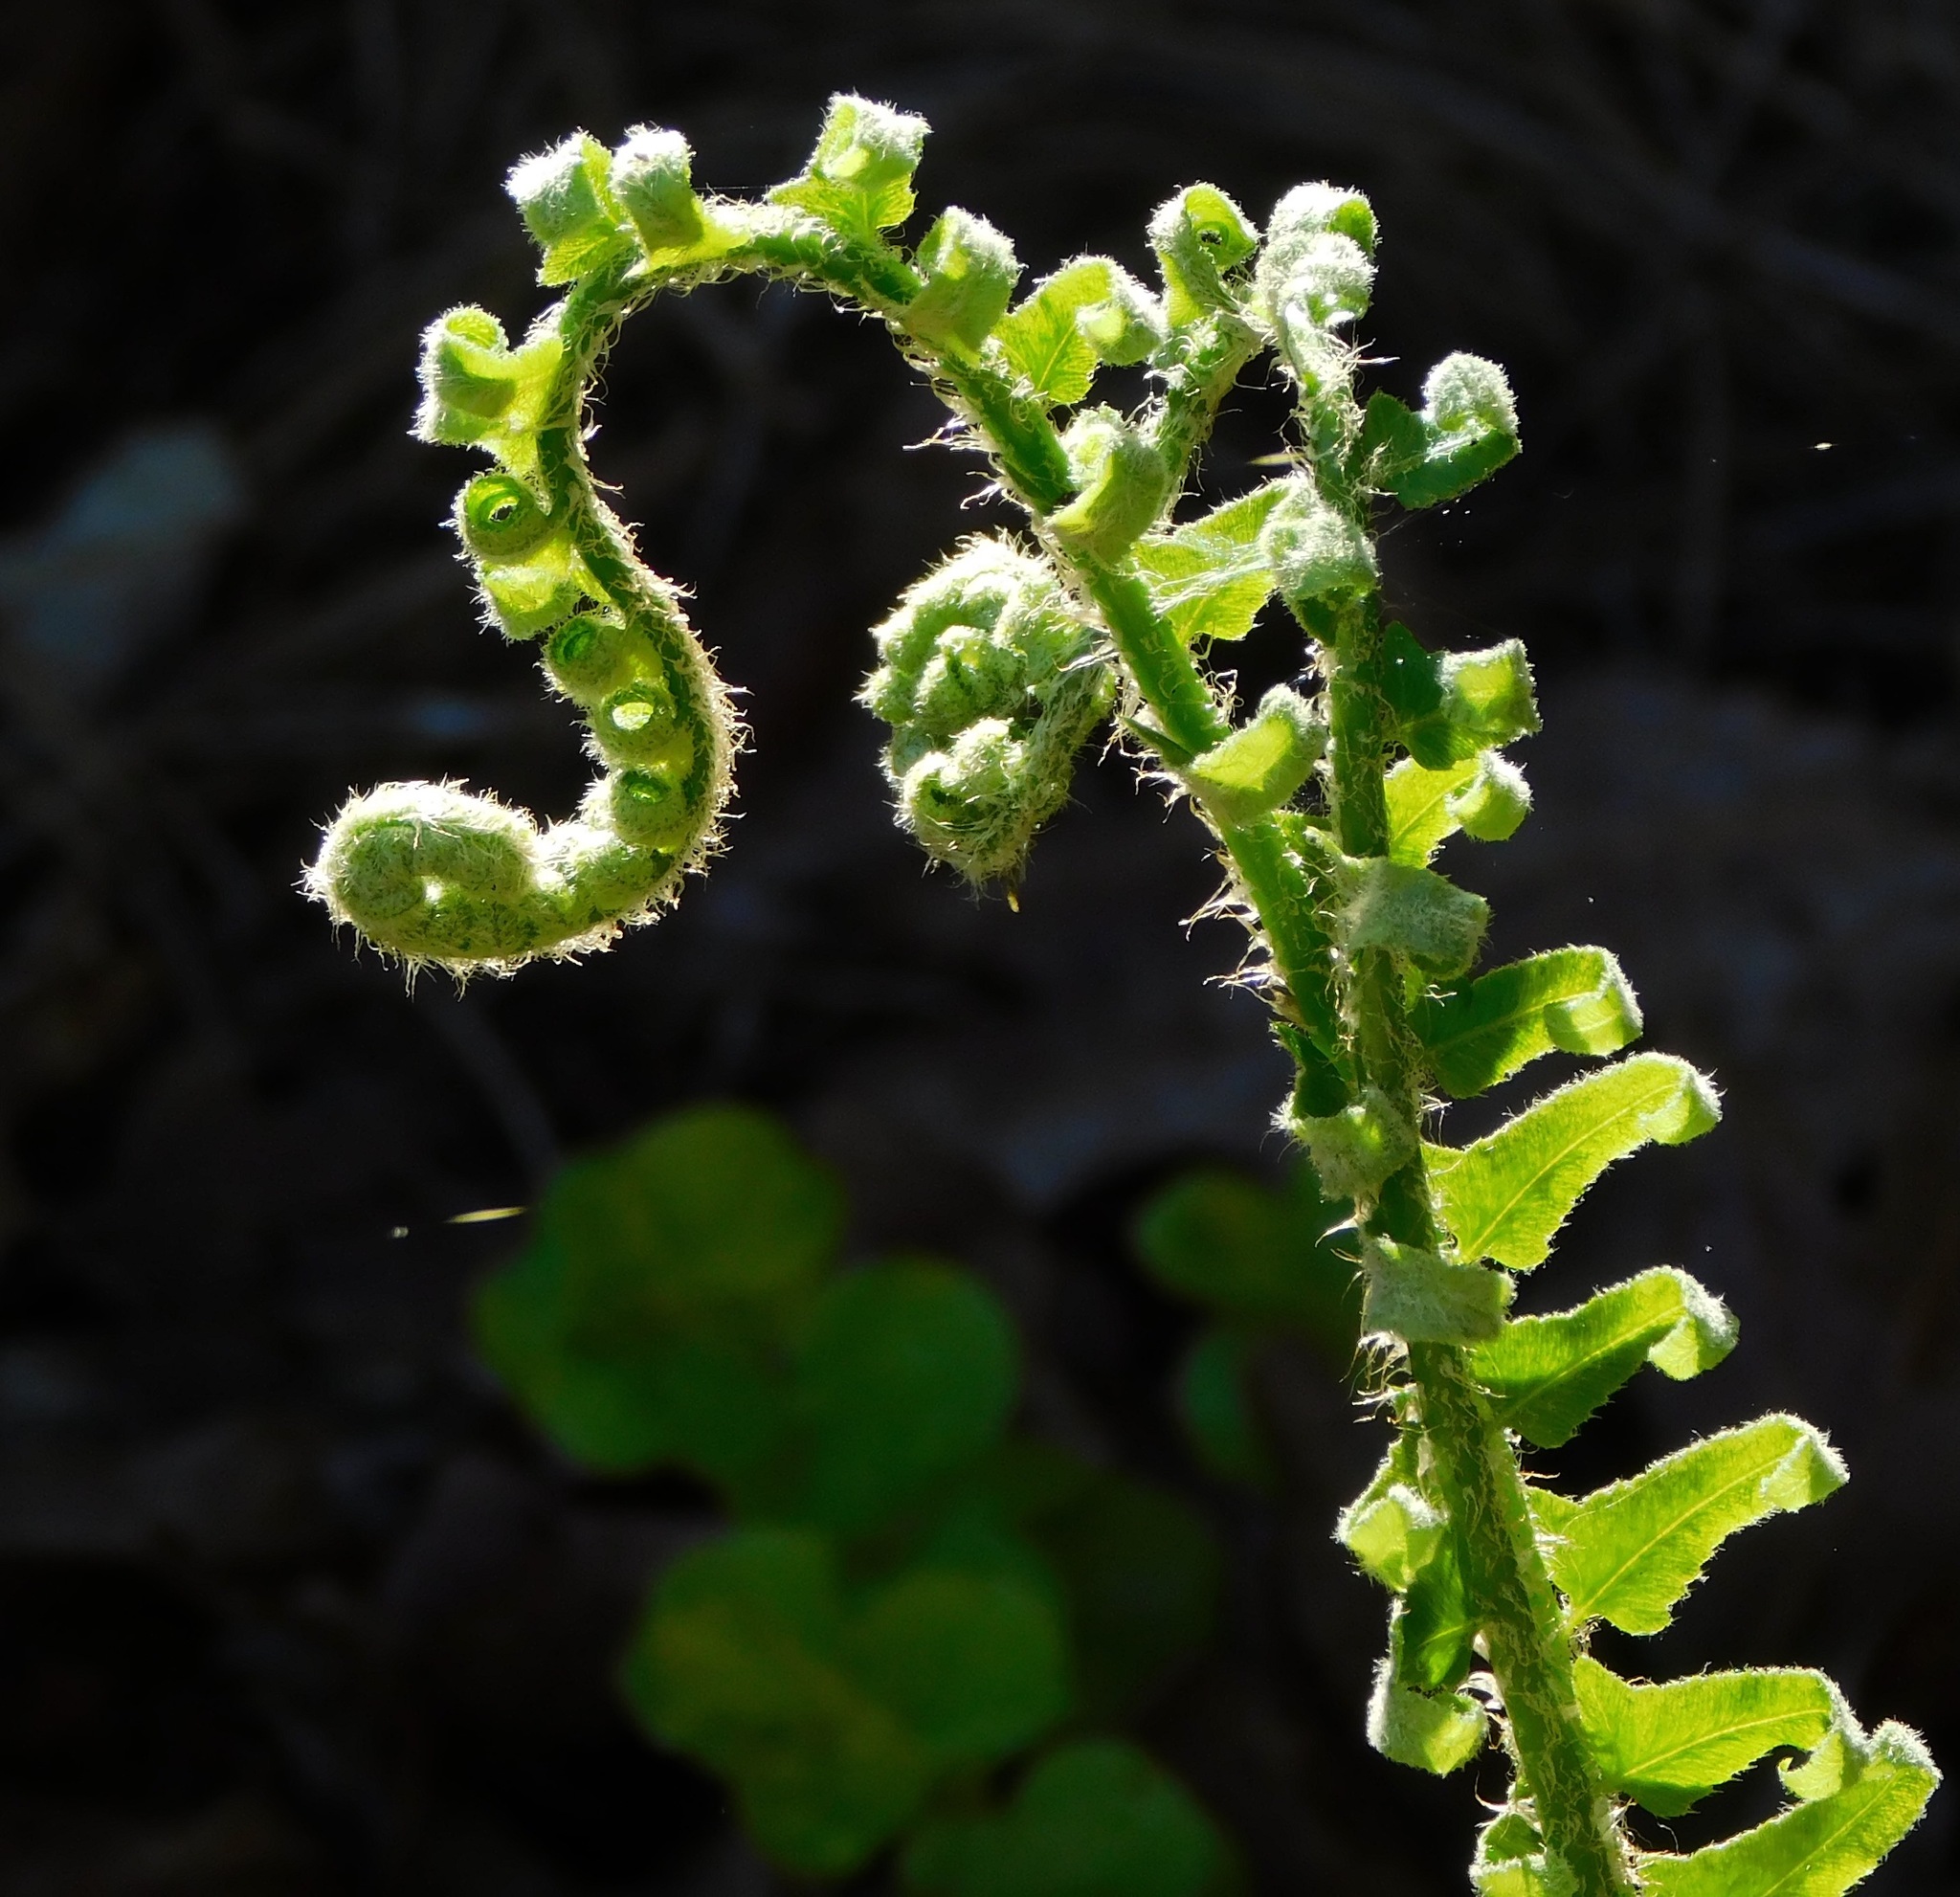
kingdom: Plantae
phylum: Tracheophyta
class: Polypodiopsida
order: Polypodiales
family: Dryopteridaceae
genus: Polystichum
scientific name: Polystichum acrostichoides
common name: Christmas fern
